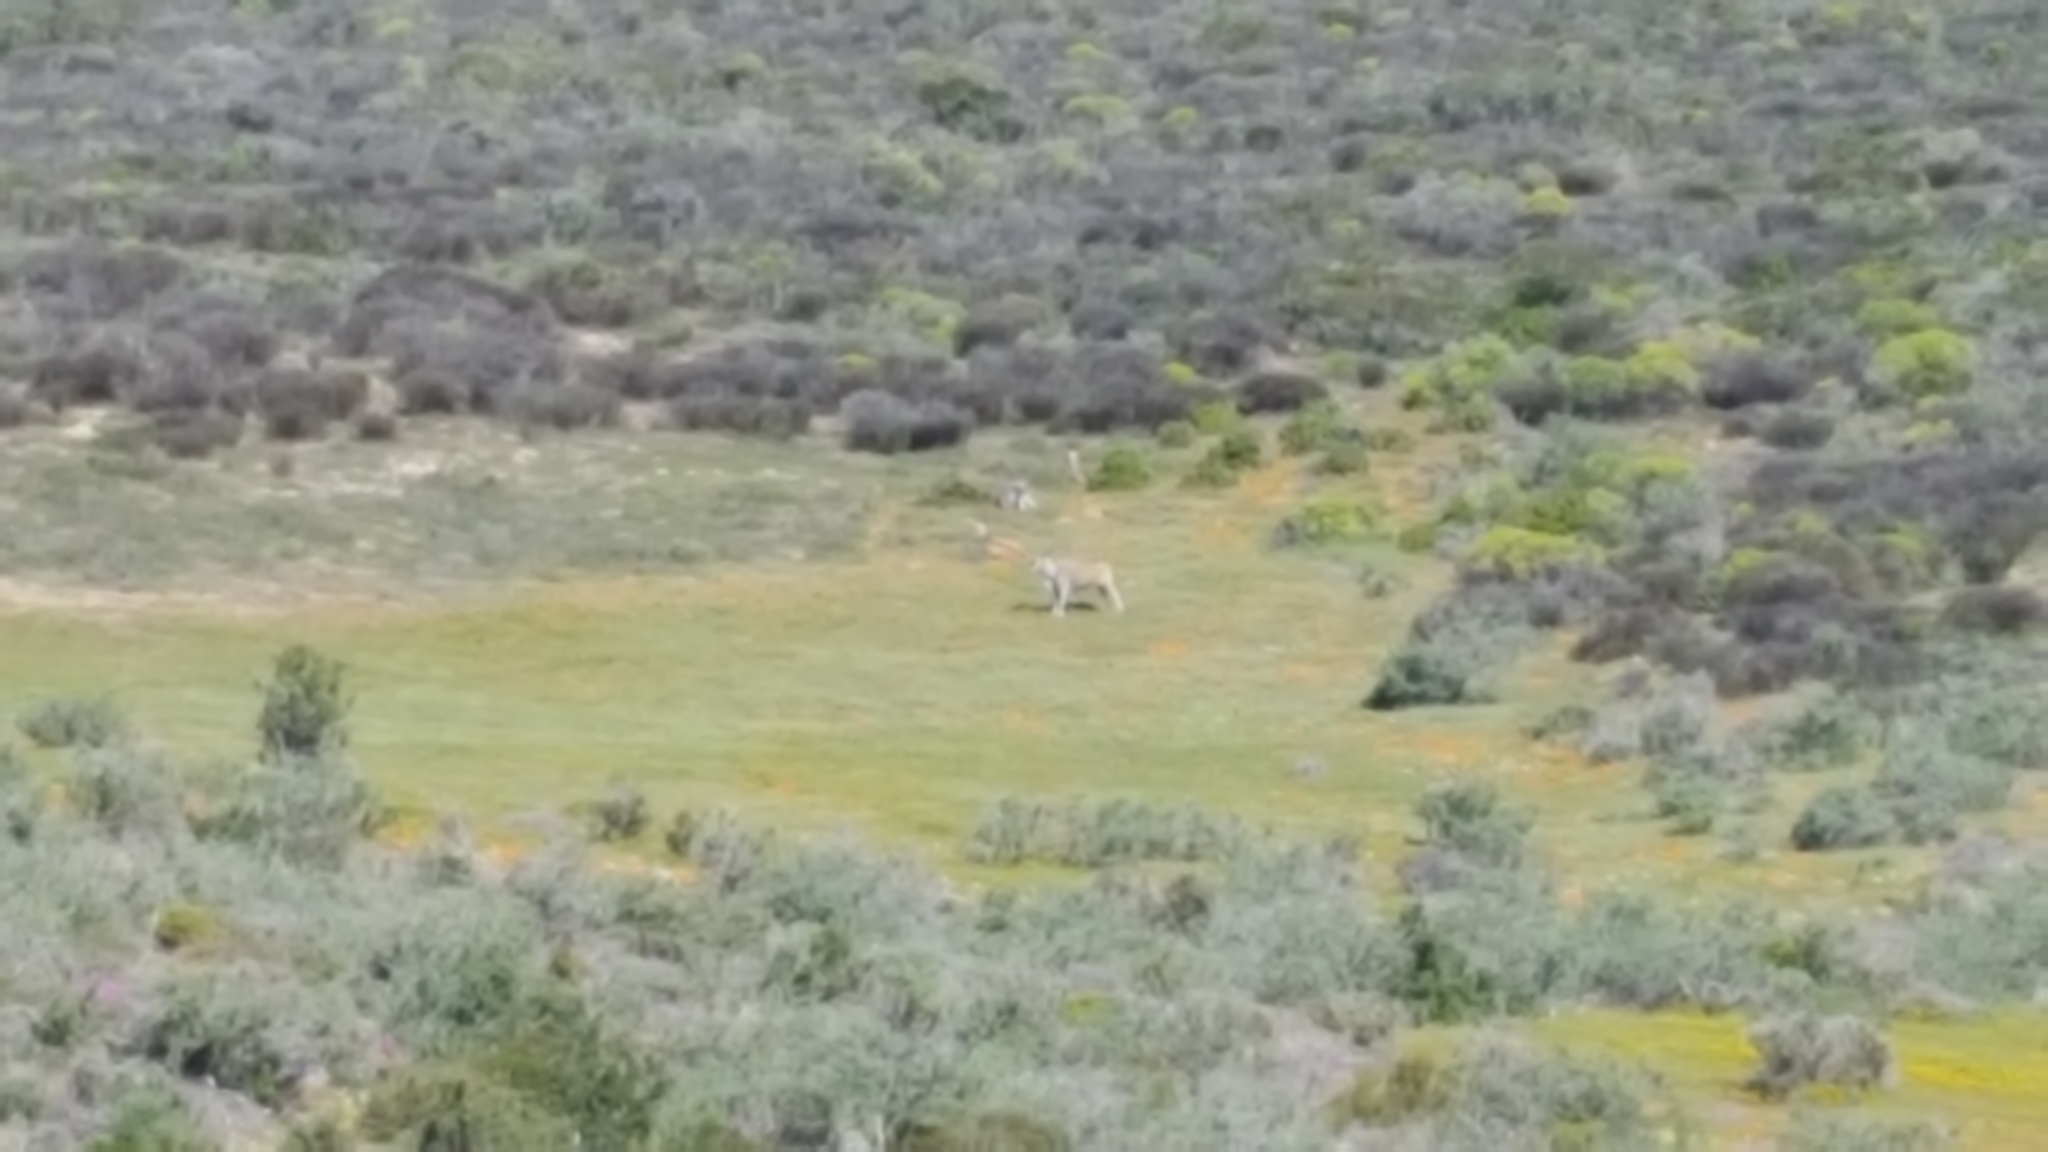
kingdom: Animalia
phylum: Chordata
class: Mammalia
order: Artiodactyla
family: Bovidae
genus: Taurotragus
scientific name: Taurotragus oryx
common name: Common eland
